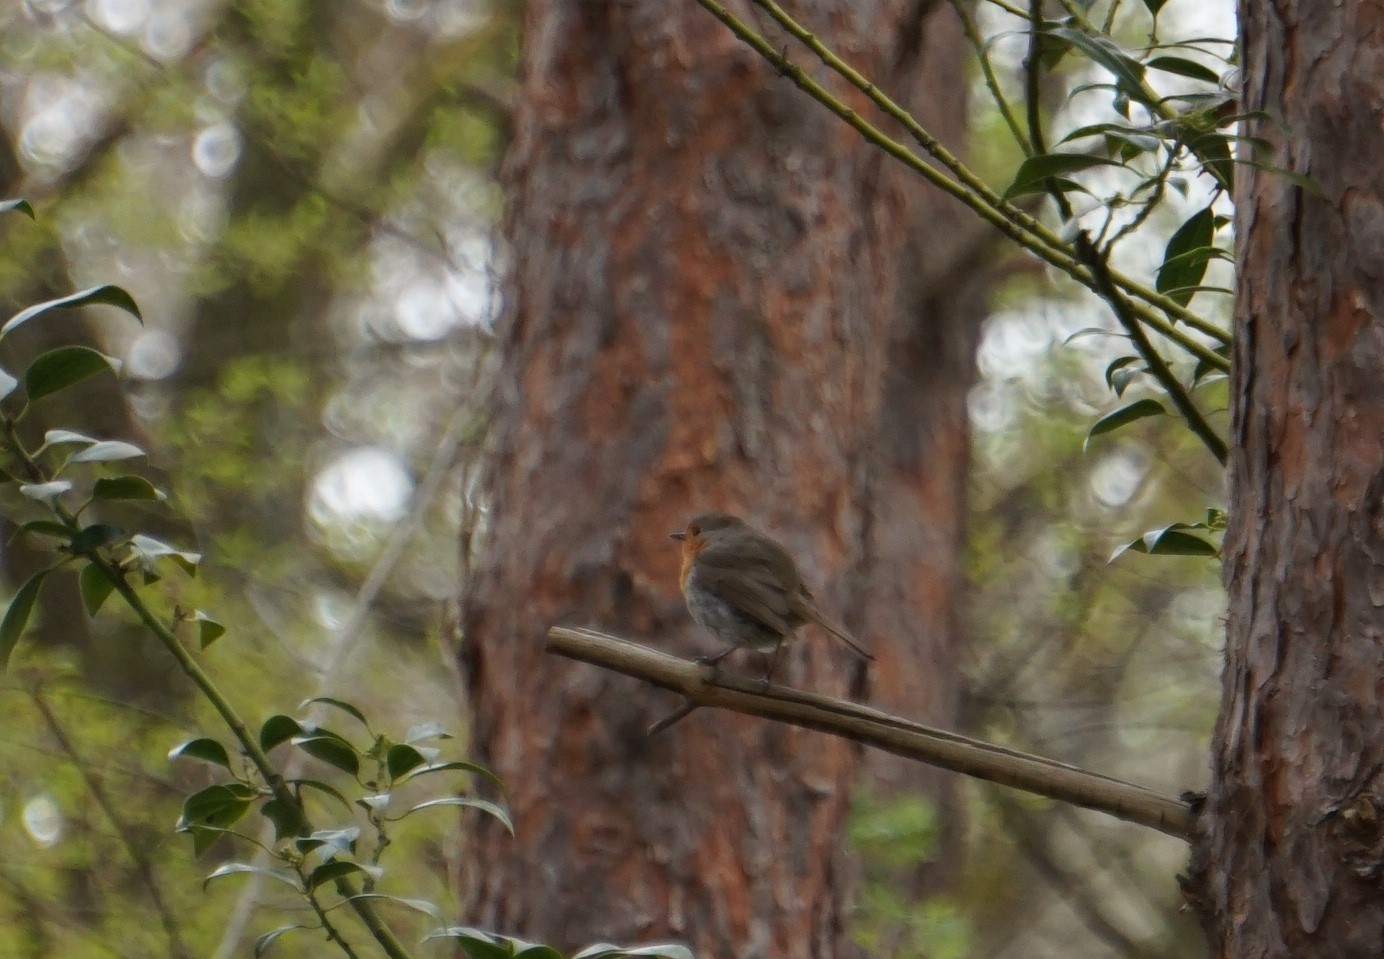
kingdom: Animalia
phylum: Chordata
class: Aves
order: Passeriformes
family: Muscicapidae
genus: Erithacus
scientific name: Erithacus rubecula
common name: European robin
